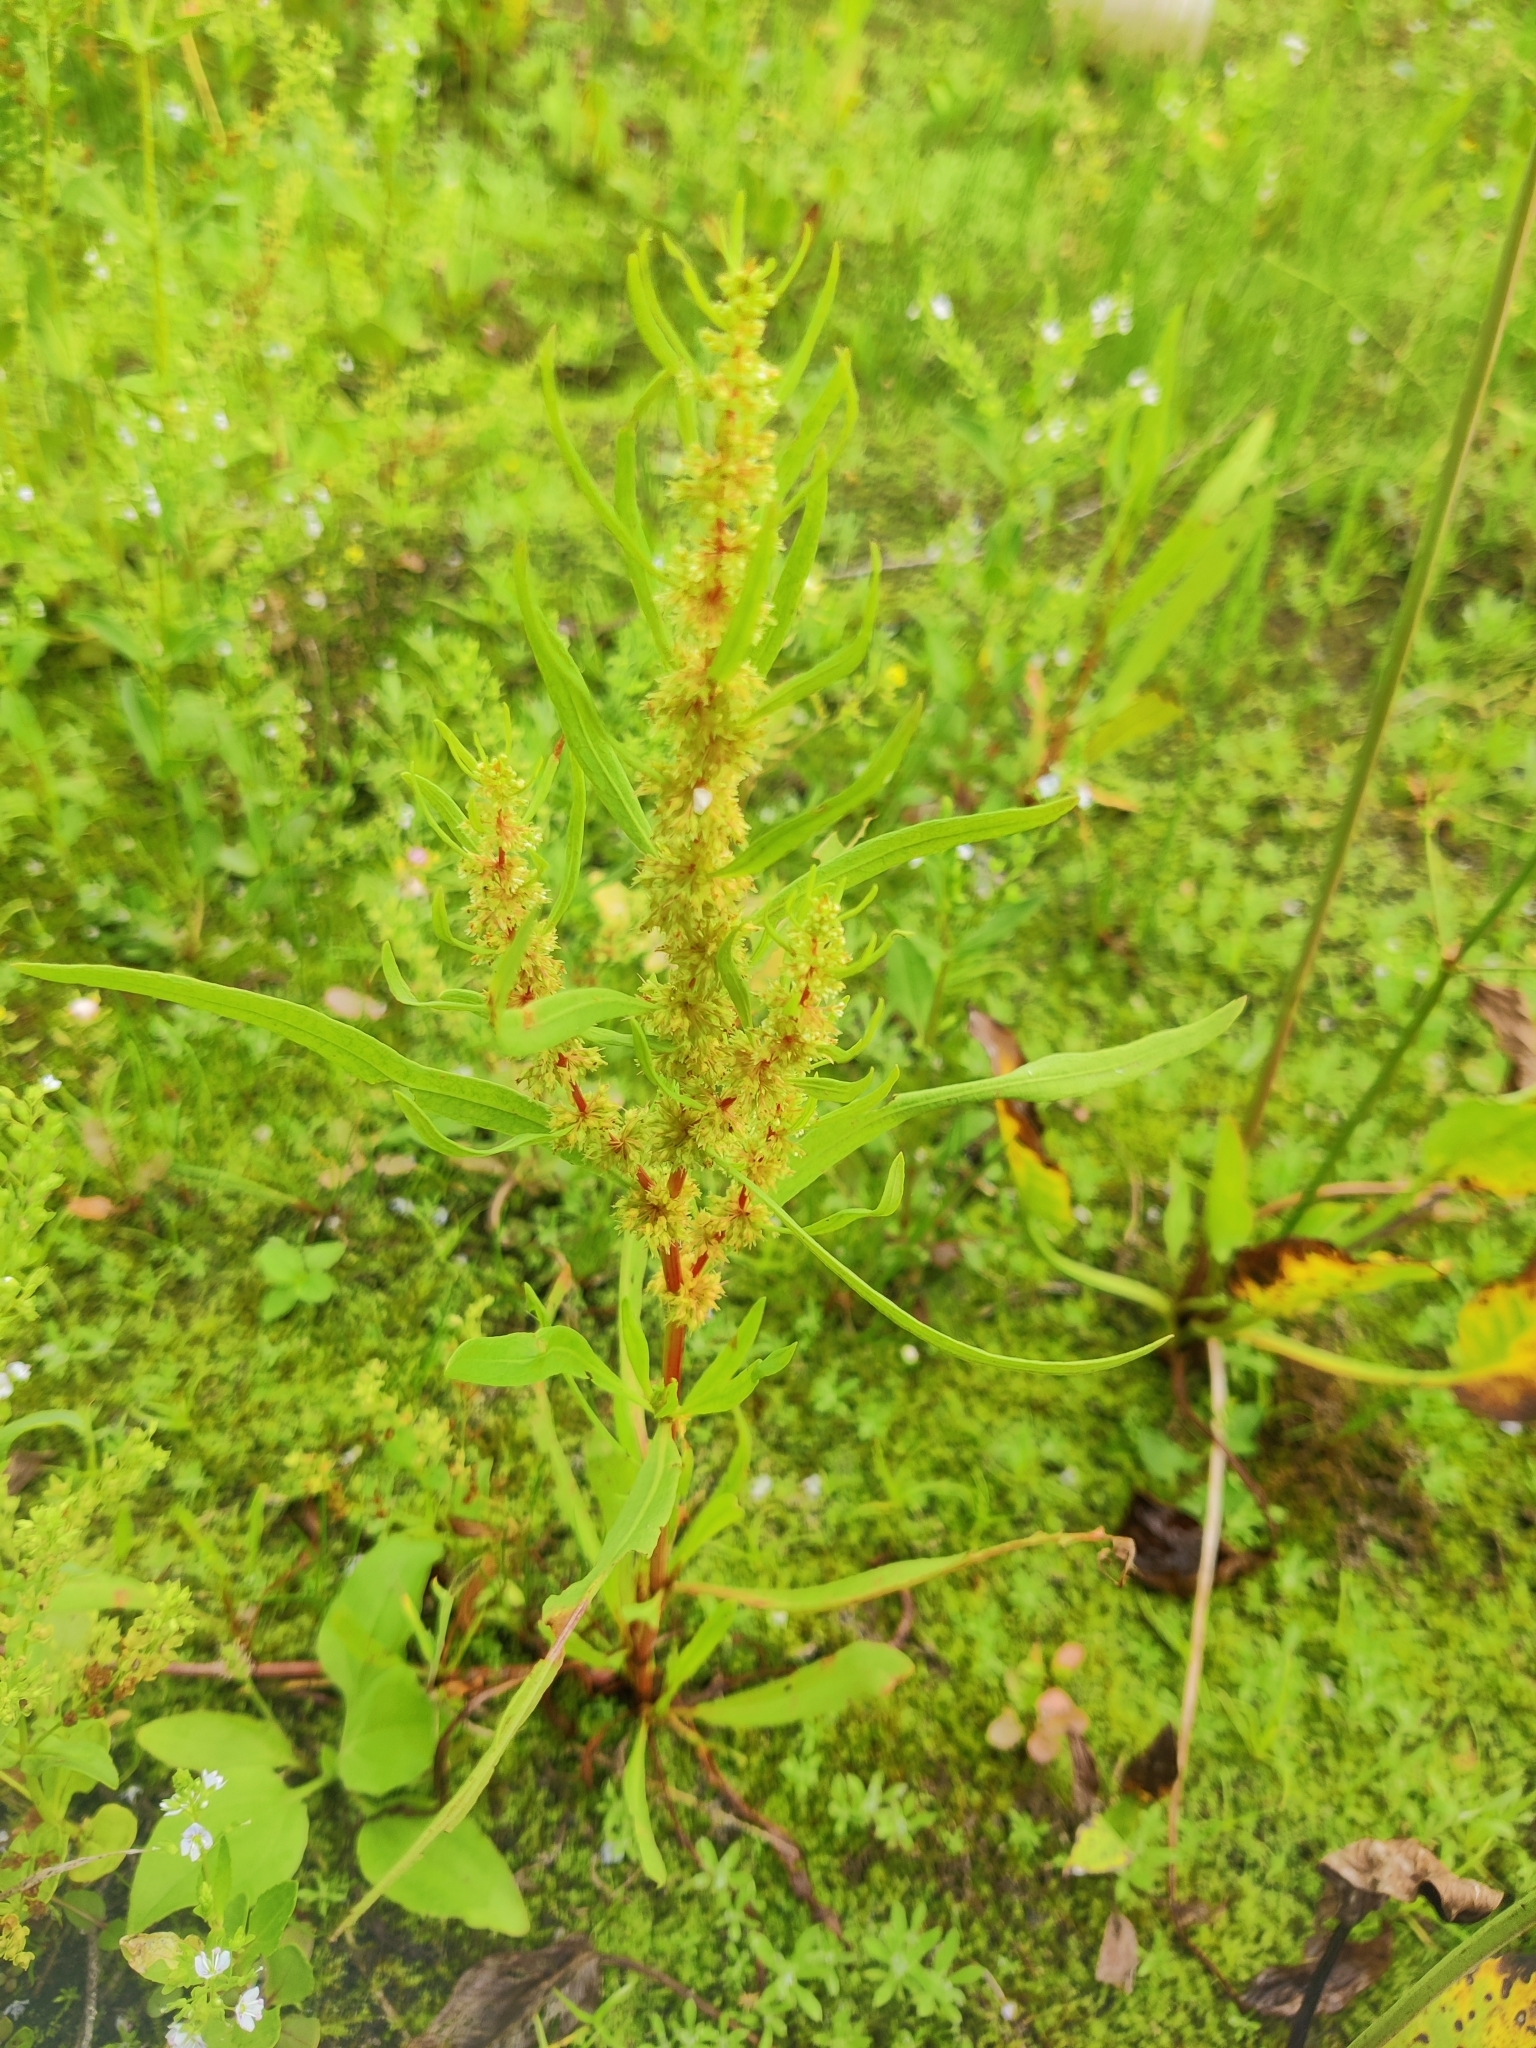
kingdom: Plantae
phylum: Tracheophyta
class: Magnoliopsida
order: Caryophyllales
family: Polygonaceae
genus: Rumex
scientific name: Rumex maritimus
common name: Golden dock
